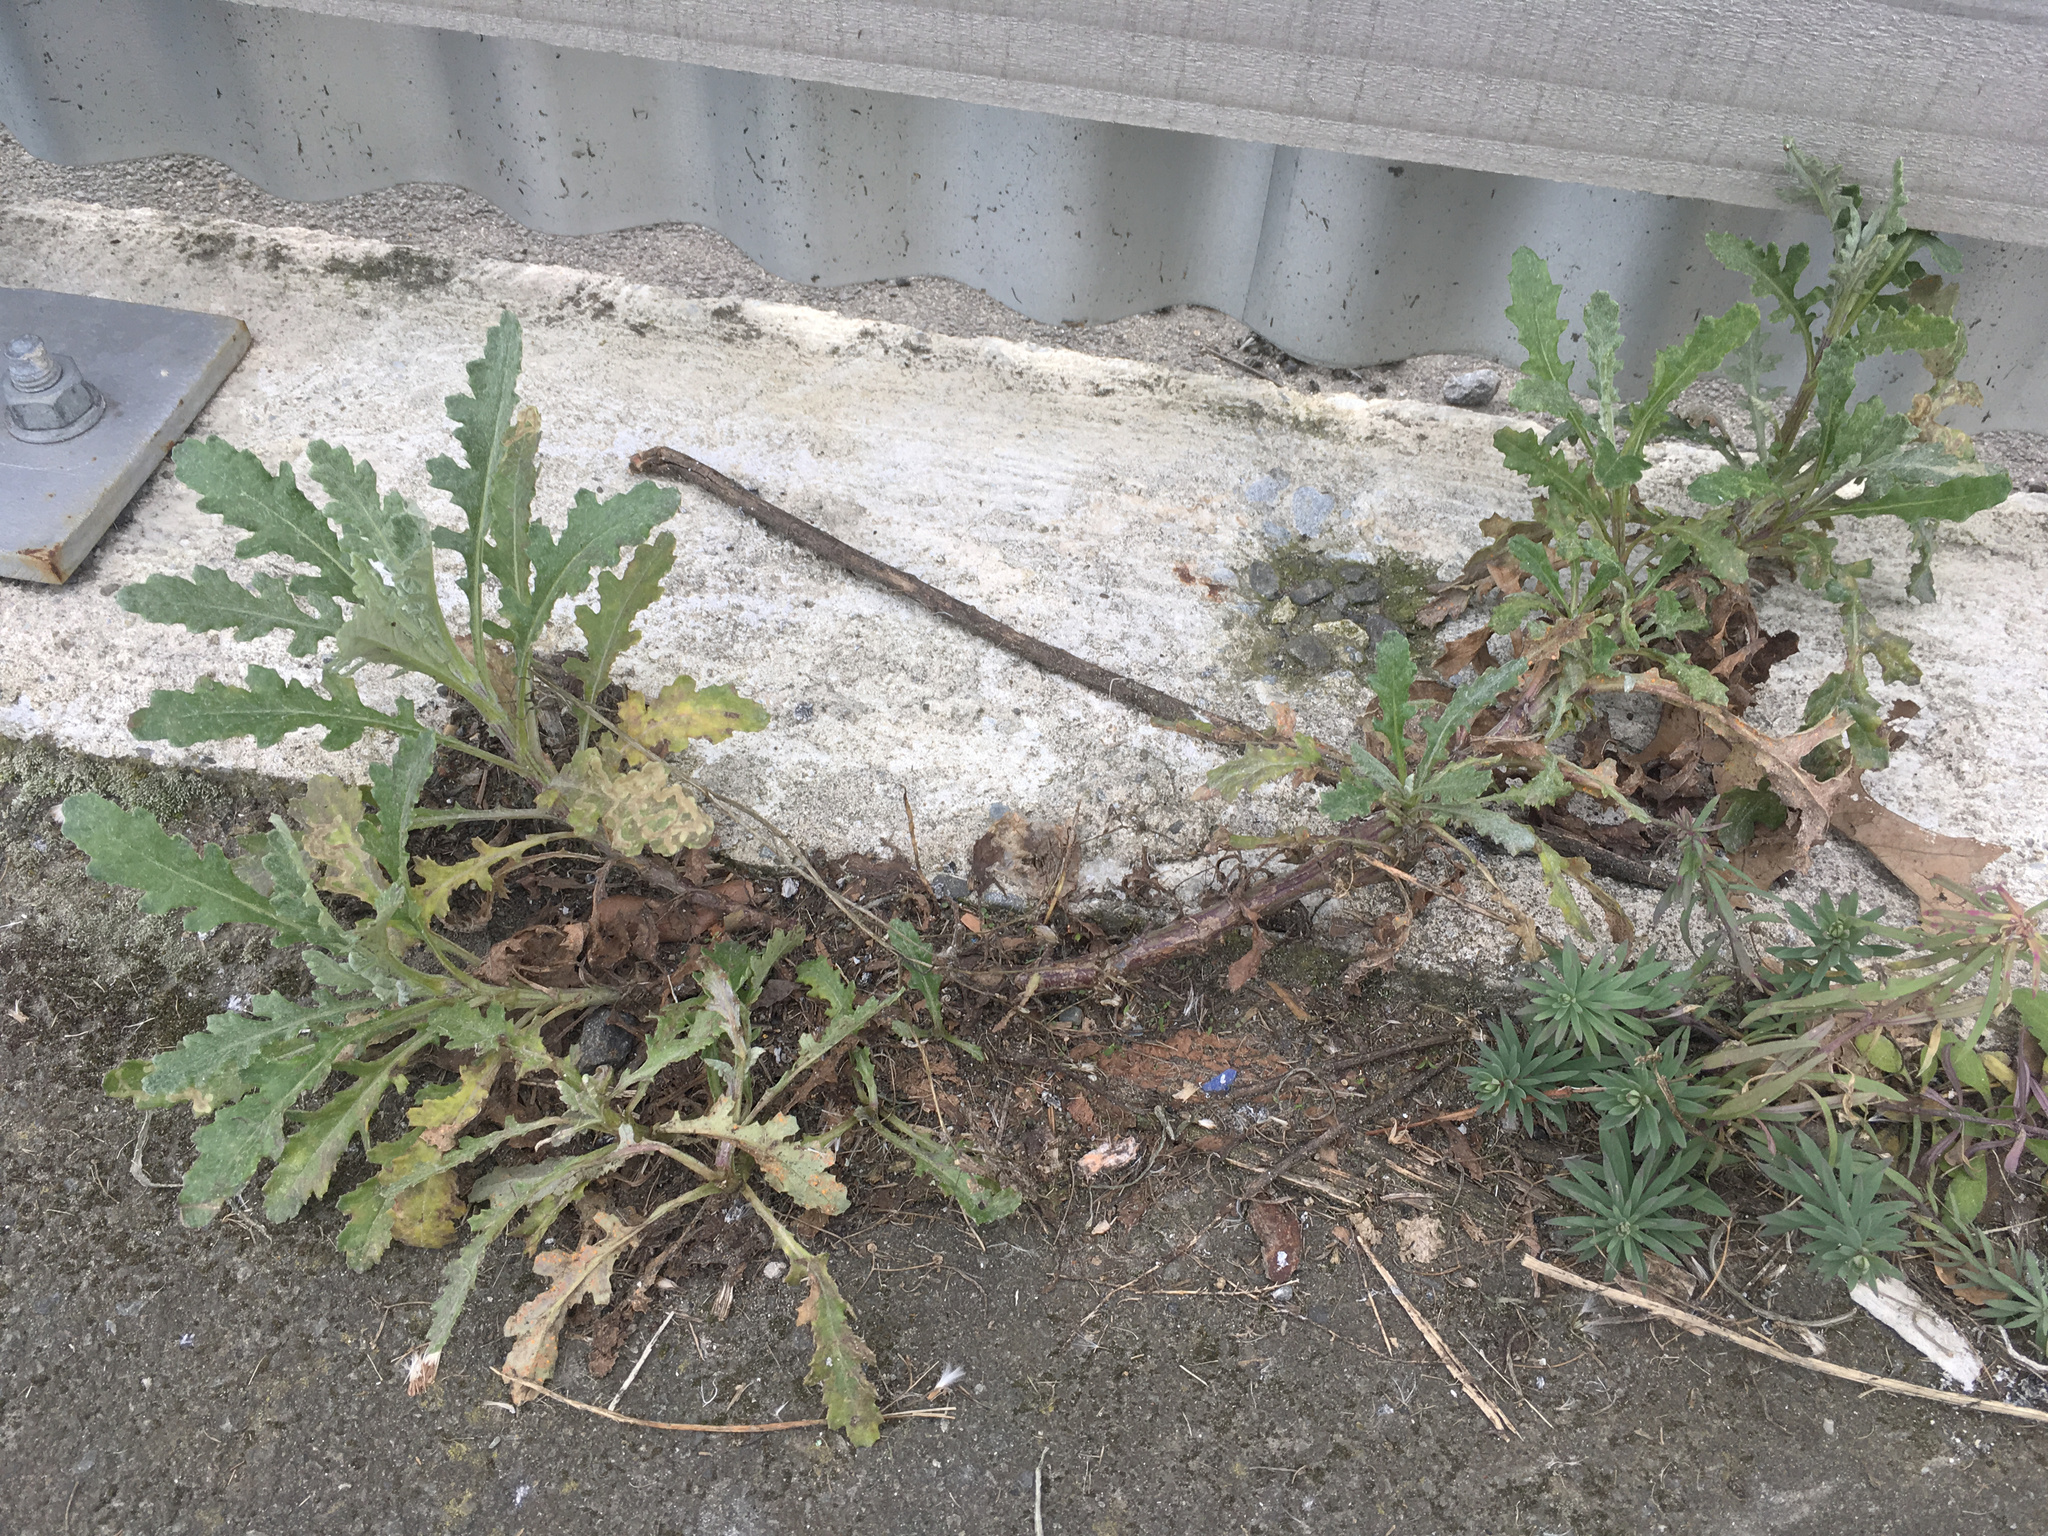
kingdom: Plantae
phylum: Tracheophyta
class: Magnoliopsida
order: Asterales
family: Asteraceae
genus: Senecio
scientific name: Senecio glomeratus
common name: Cutleaf burnweed
